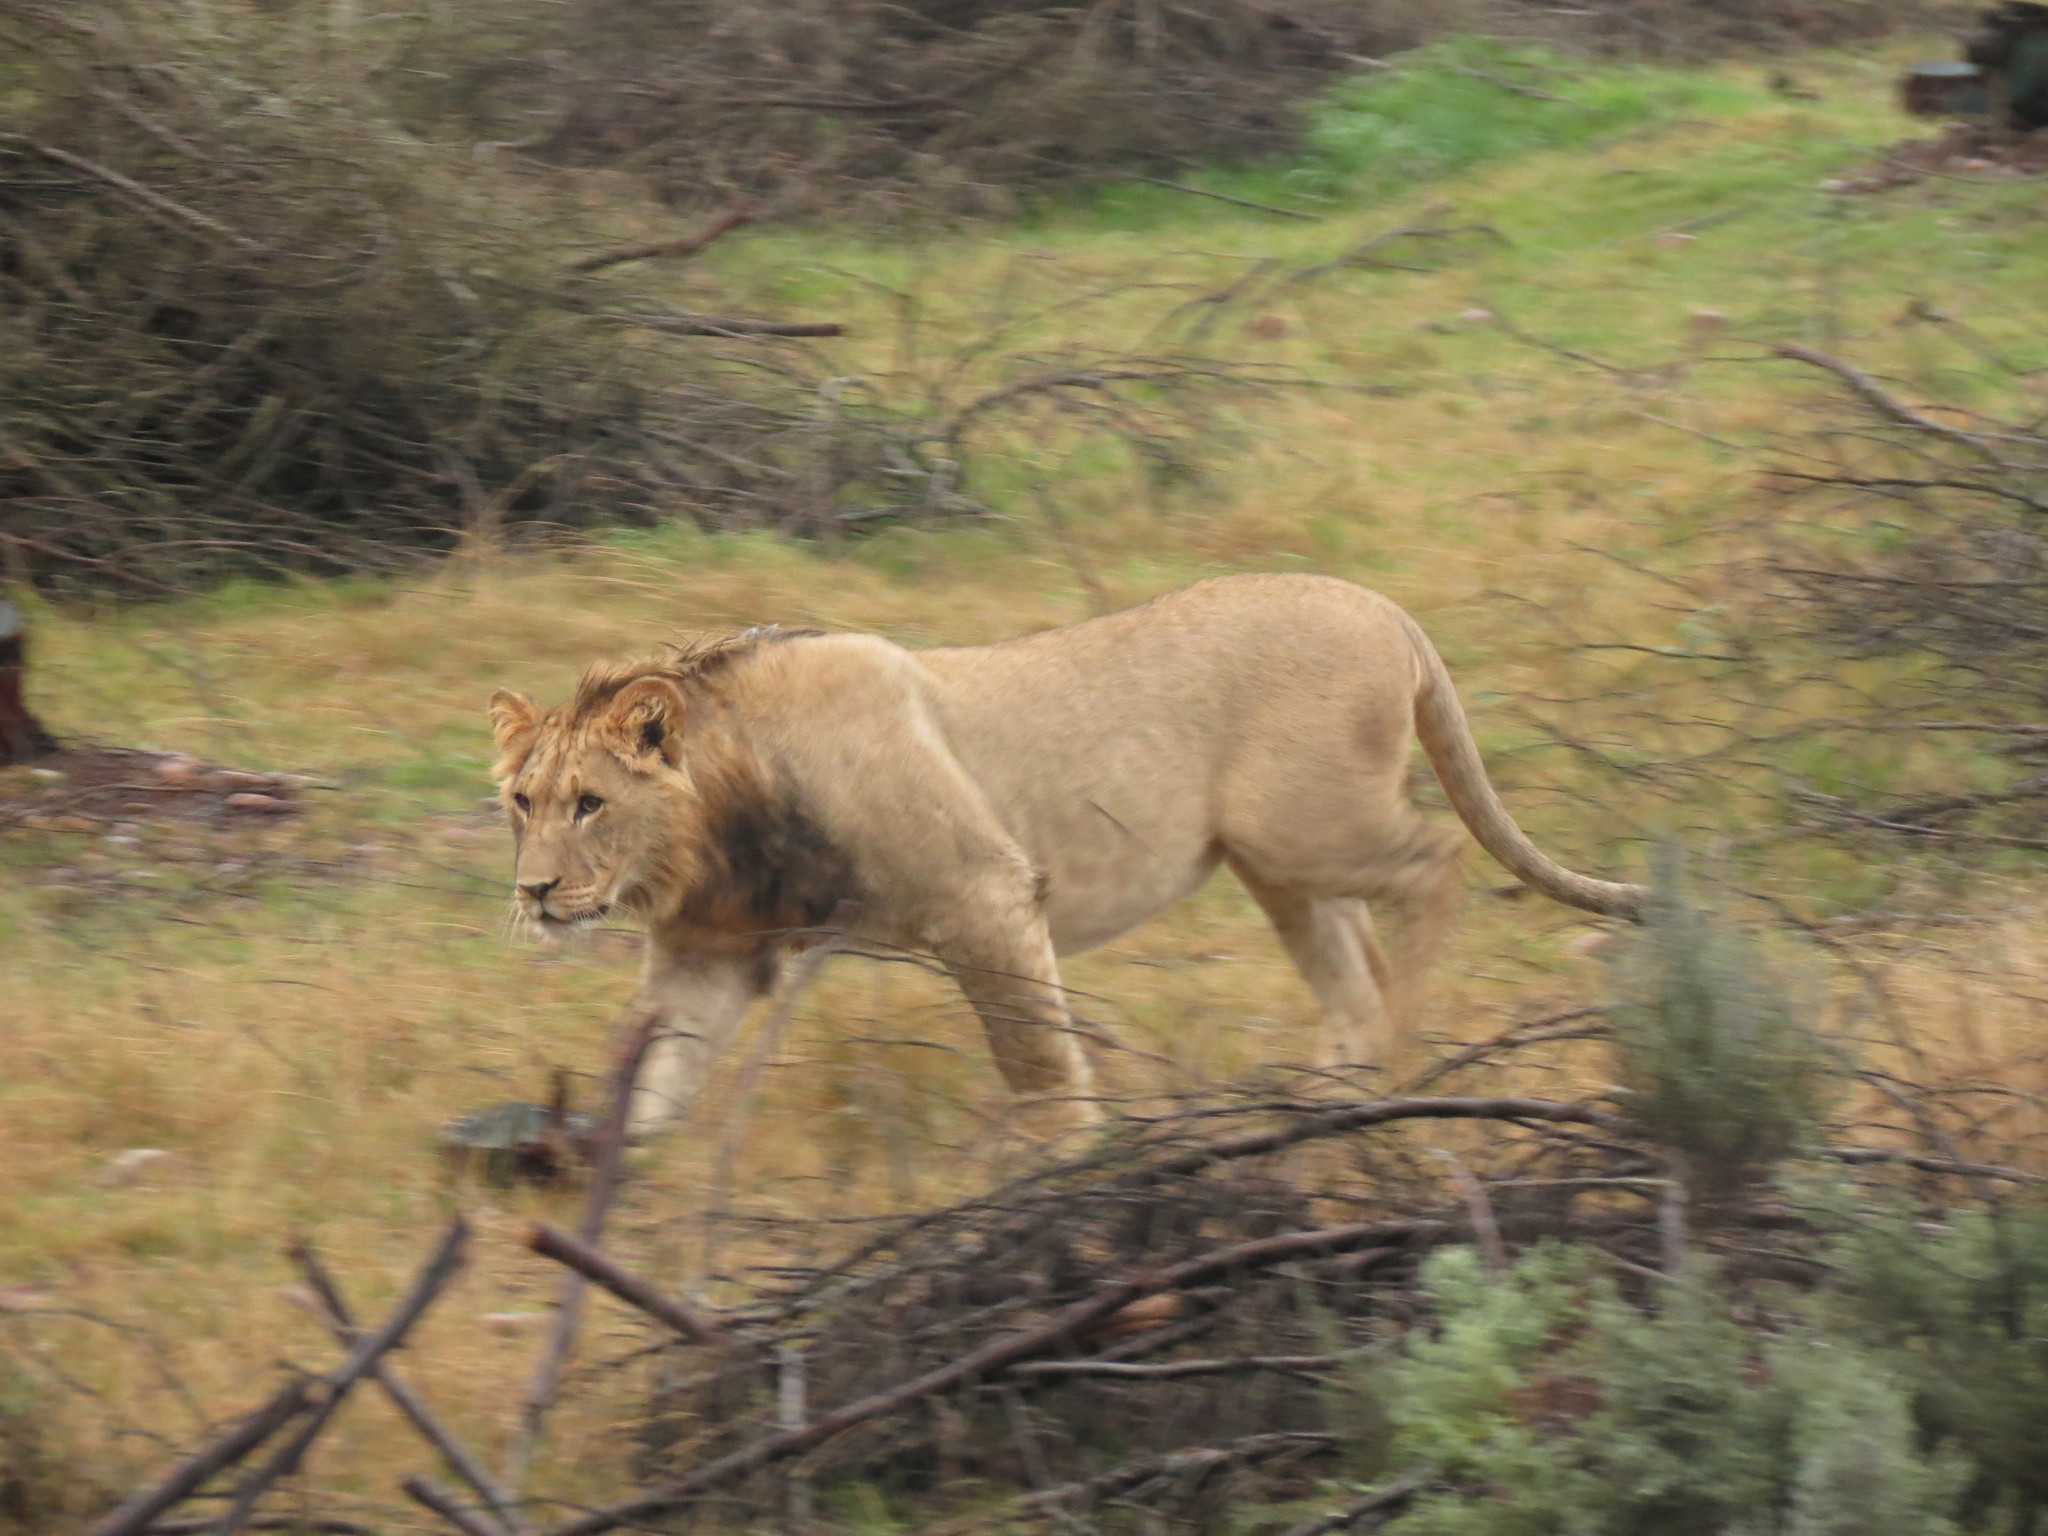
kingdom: Animalia
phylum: Chordata
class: Mammalia
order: Carnivora
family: Felidae
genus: Panthera
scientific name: Panthera leo
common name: Lion
